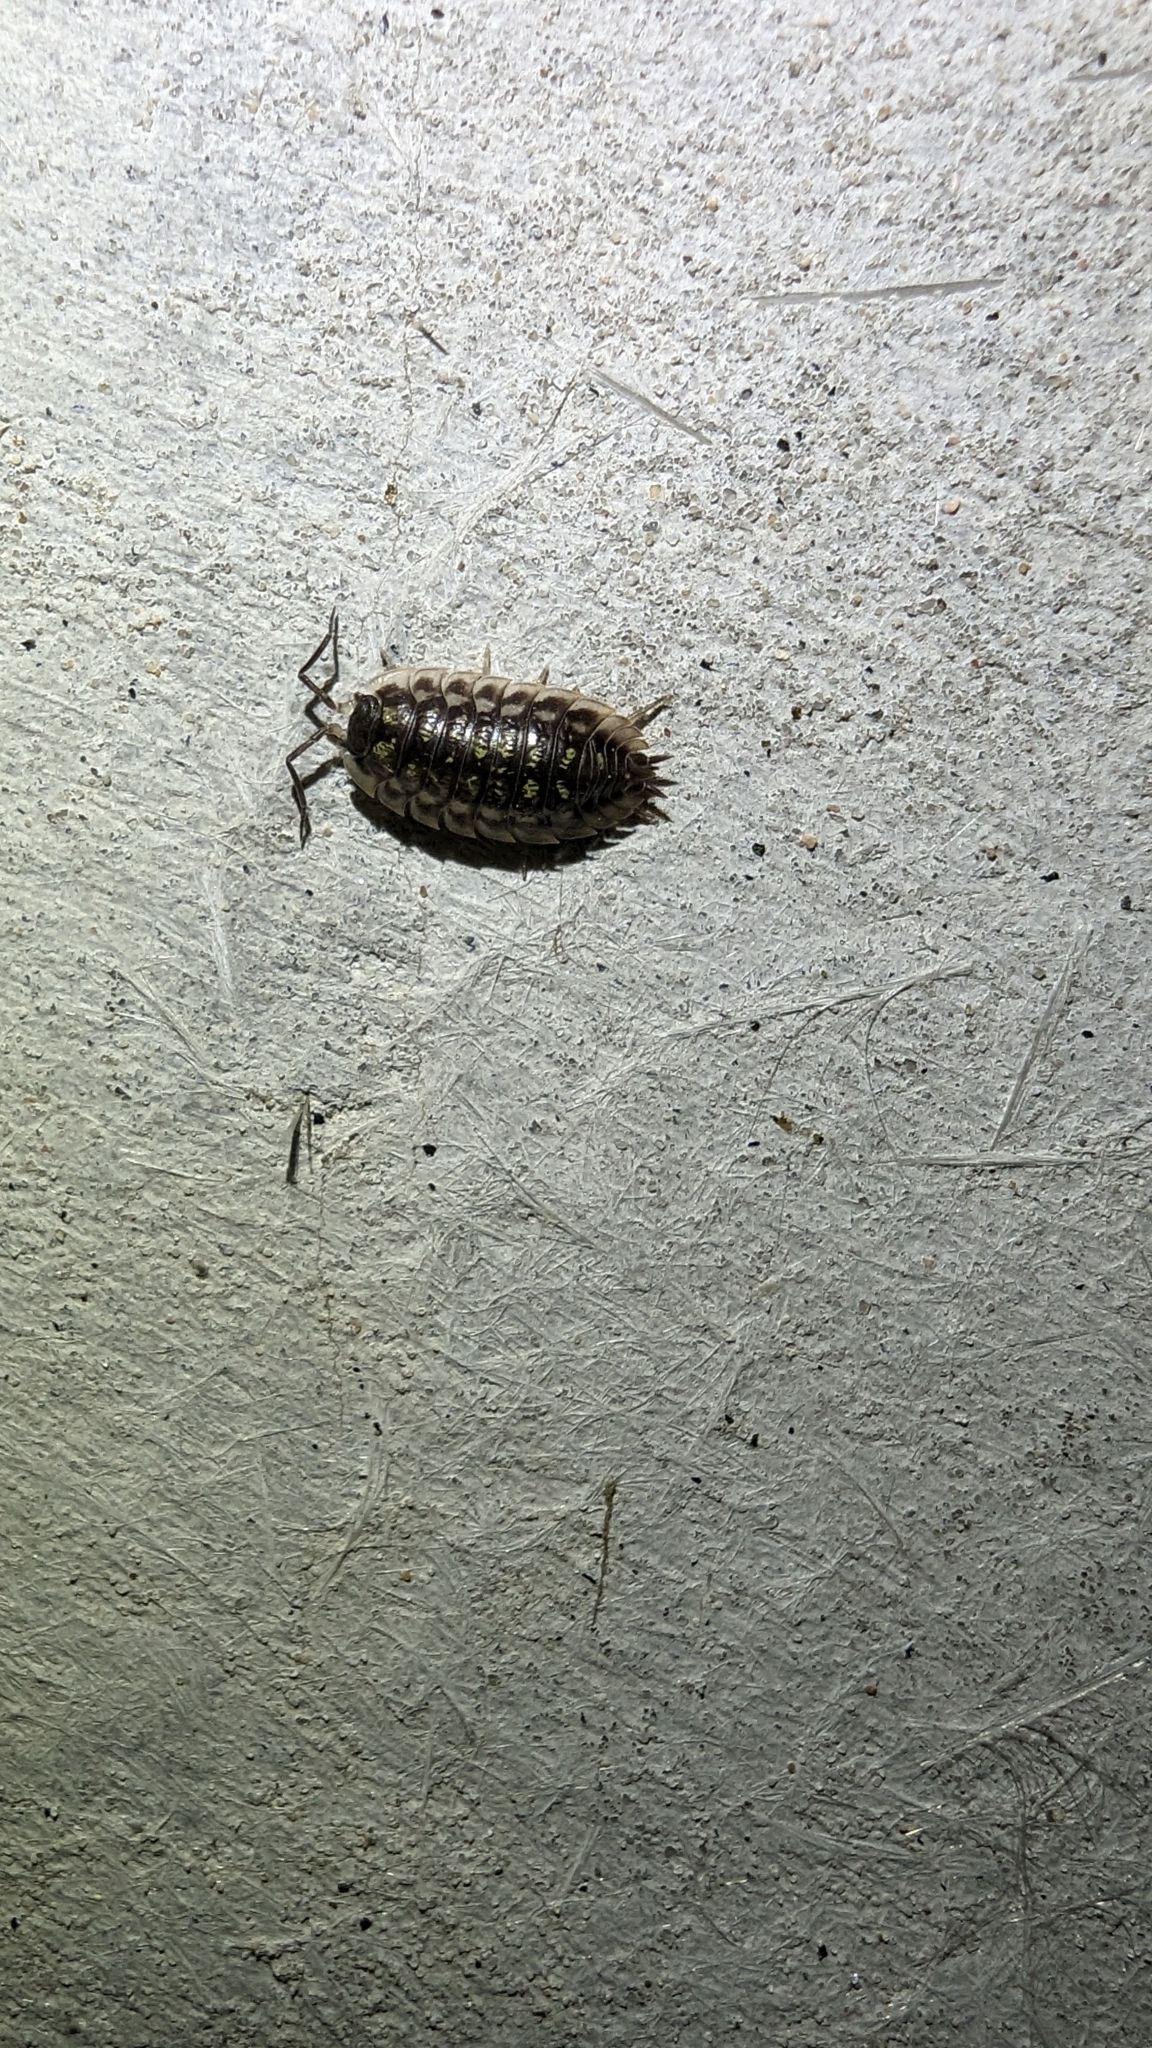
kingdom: Animalia
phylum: Arthropoda
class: Malacostraca
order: Isopoda
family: Oniscidae
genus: Oniscus
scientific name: Oniscus asellus
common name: Common shiny woodlouse
